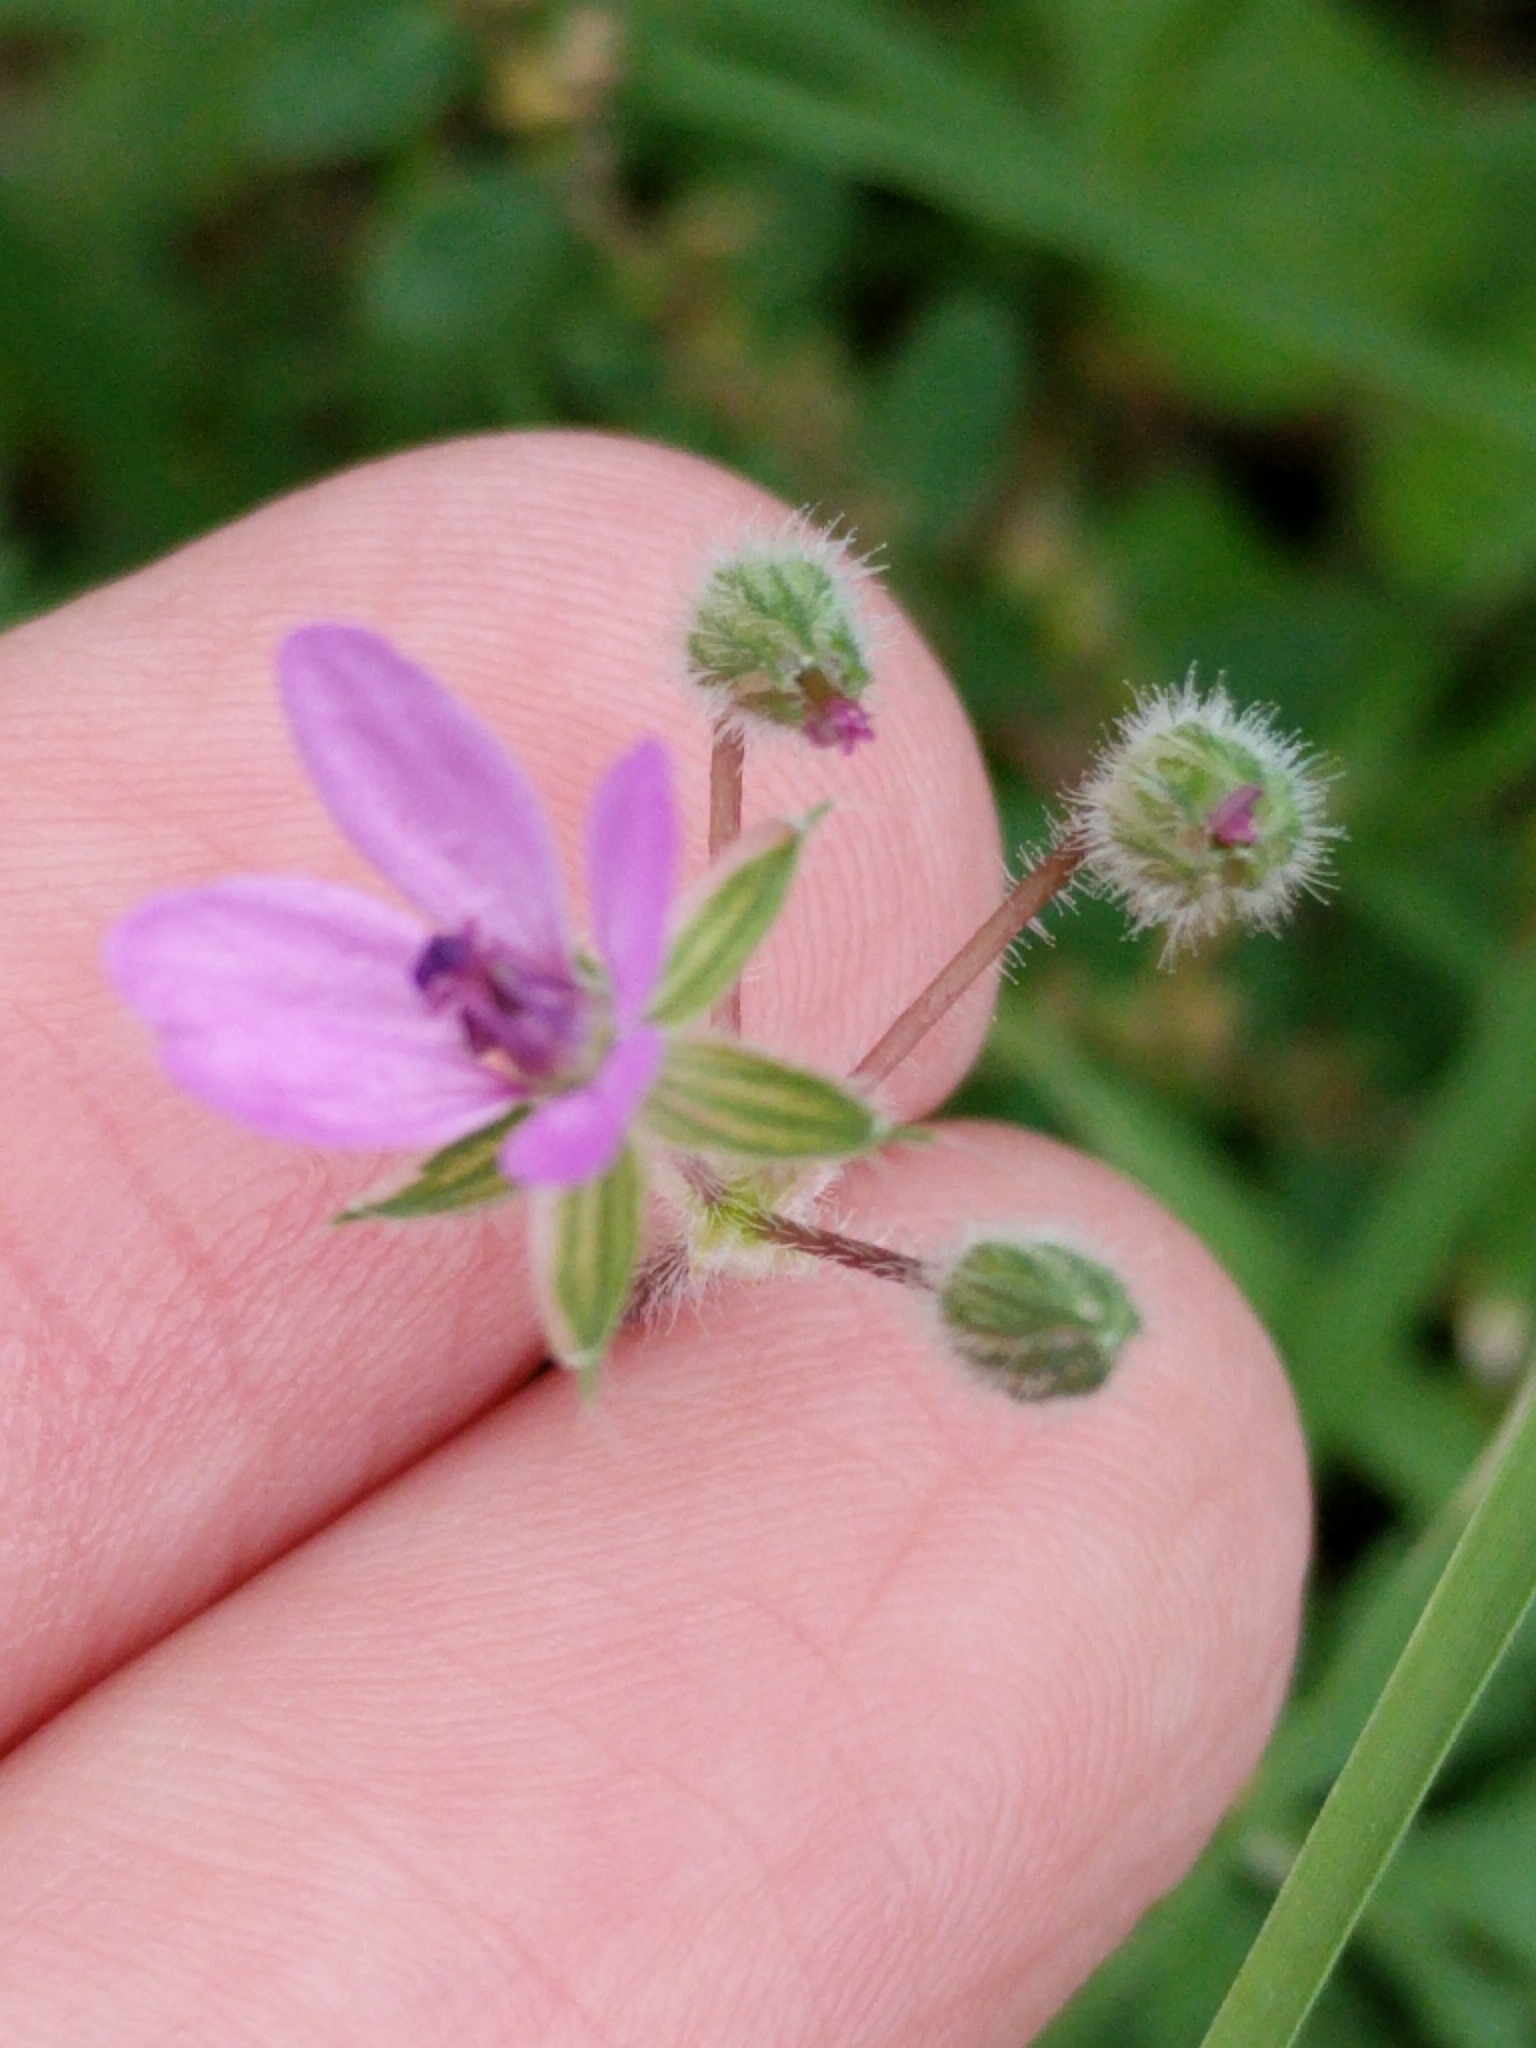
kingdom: Plantae
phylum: Tracheophyta
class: Magnoliopsida
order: Geraniales
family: Geraniaceae
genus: Erodium
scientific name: Erodium cicutarium
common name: Common stork's-bill
